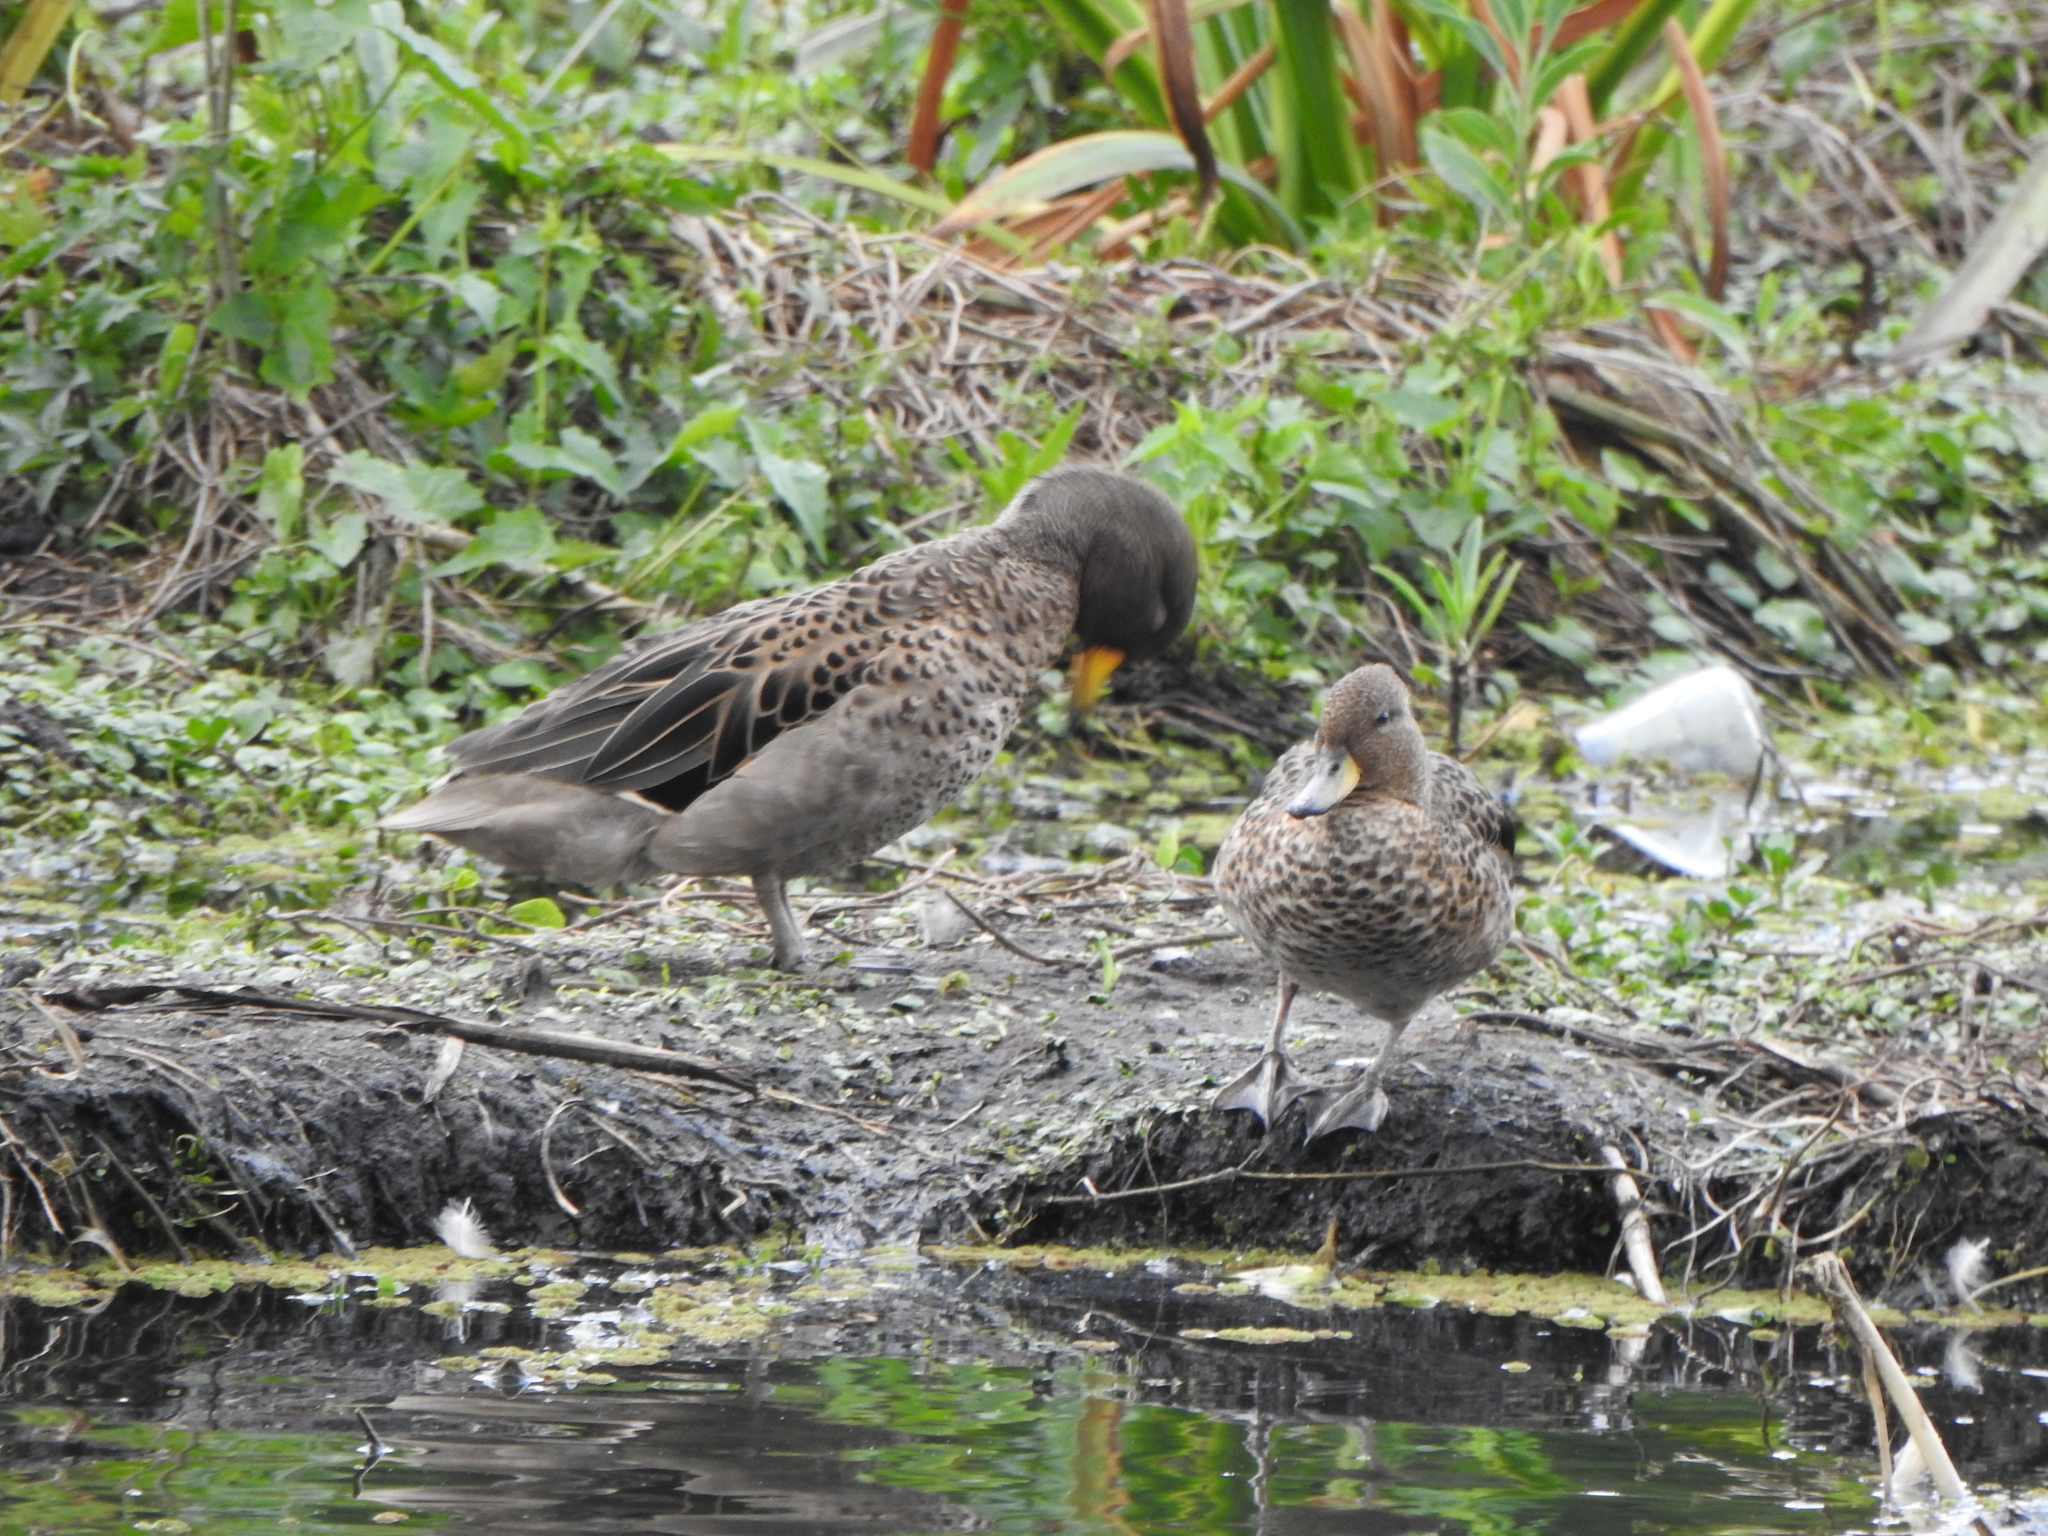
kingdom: Animalia
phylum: Chordata
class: Aves
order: Anseriformes
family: Anatidae
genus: Anas
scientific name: Anas flavirostris
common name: Yellow-billed teal
